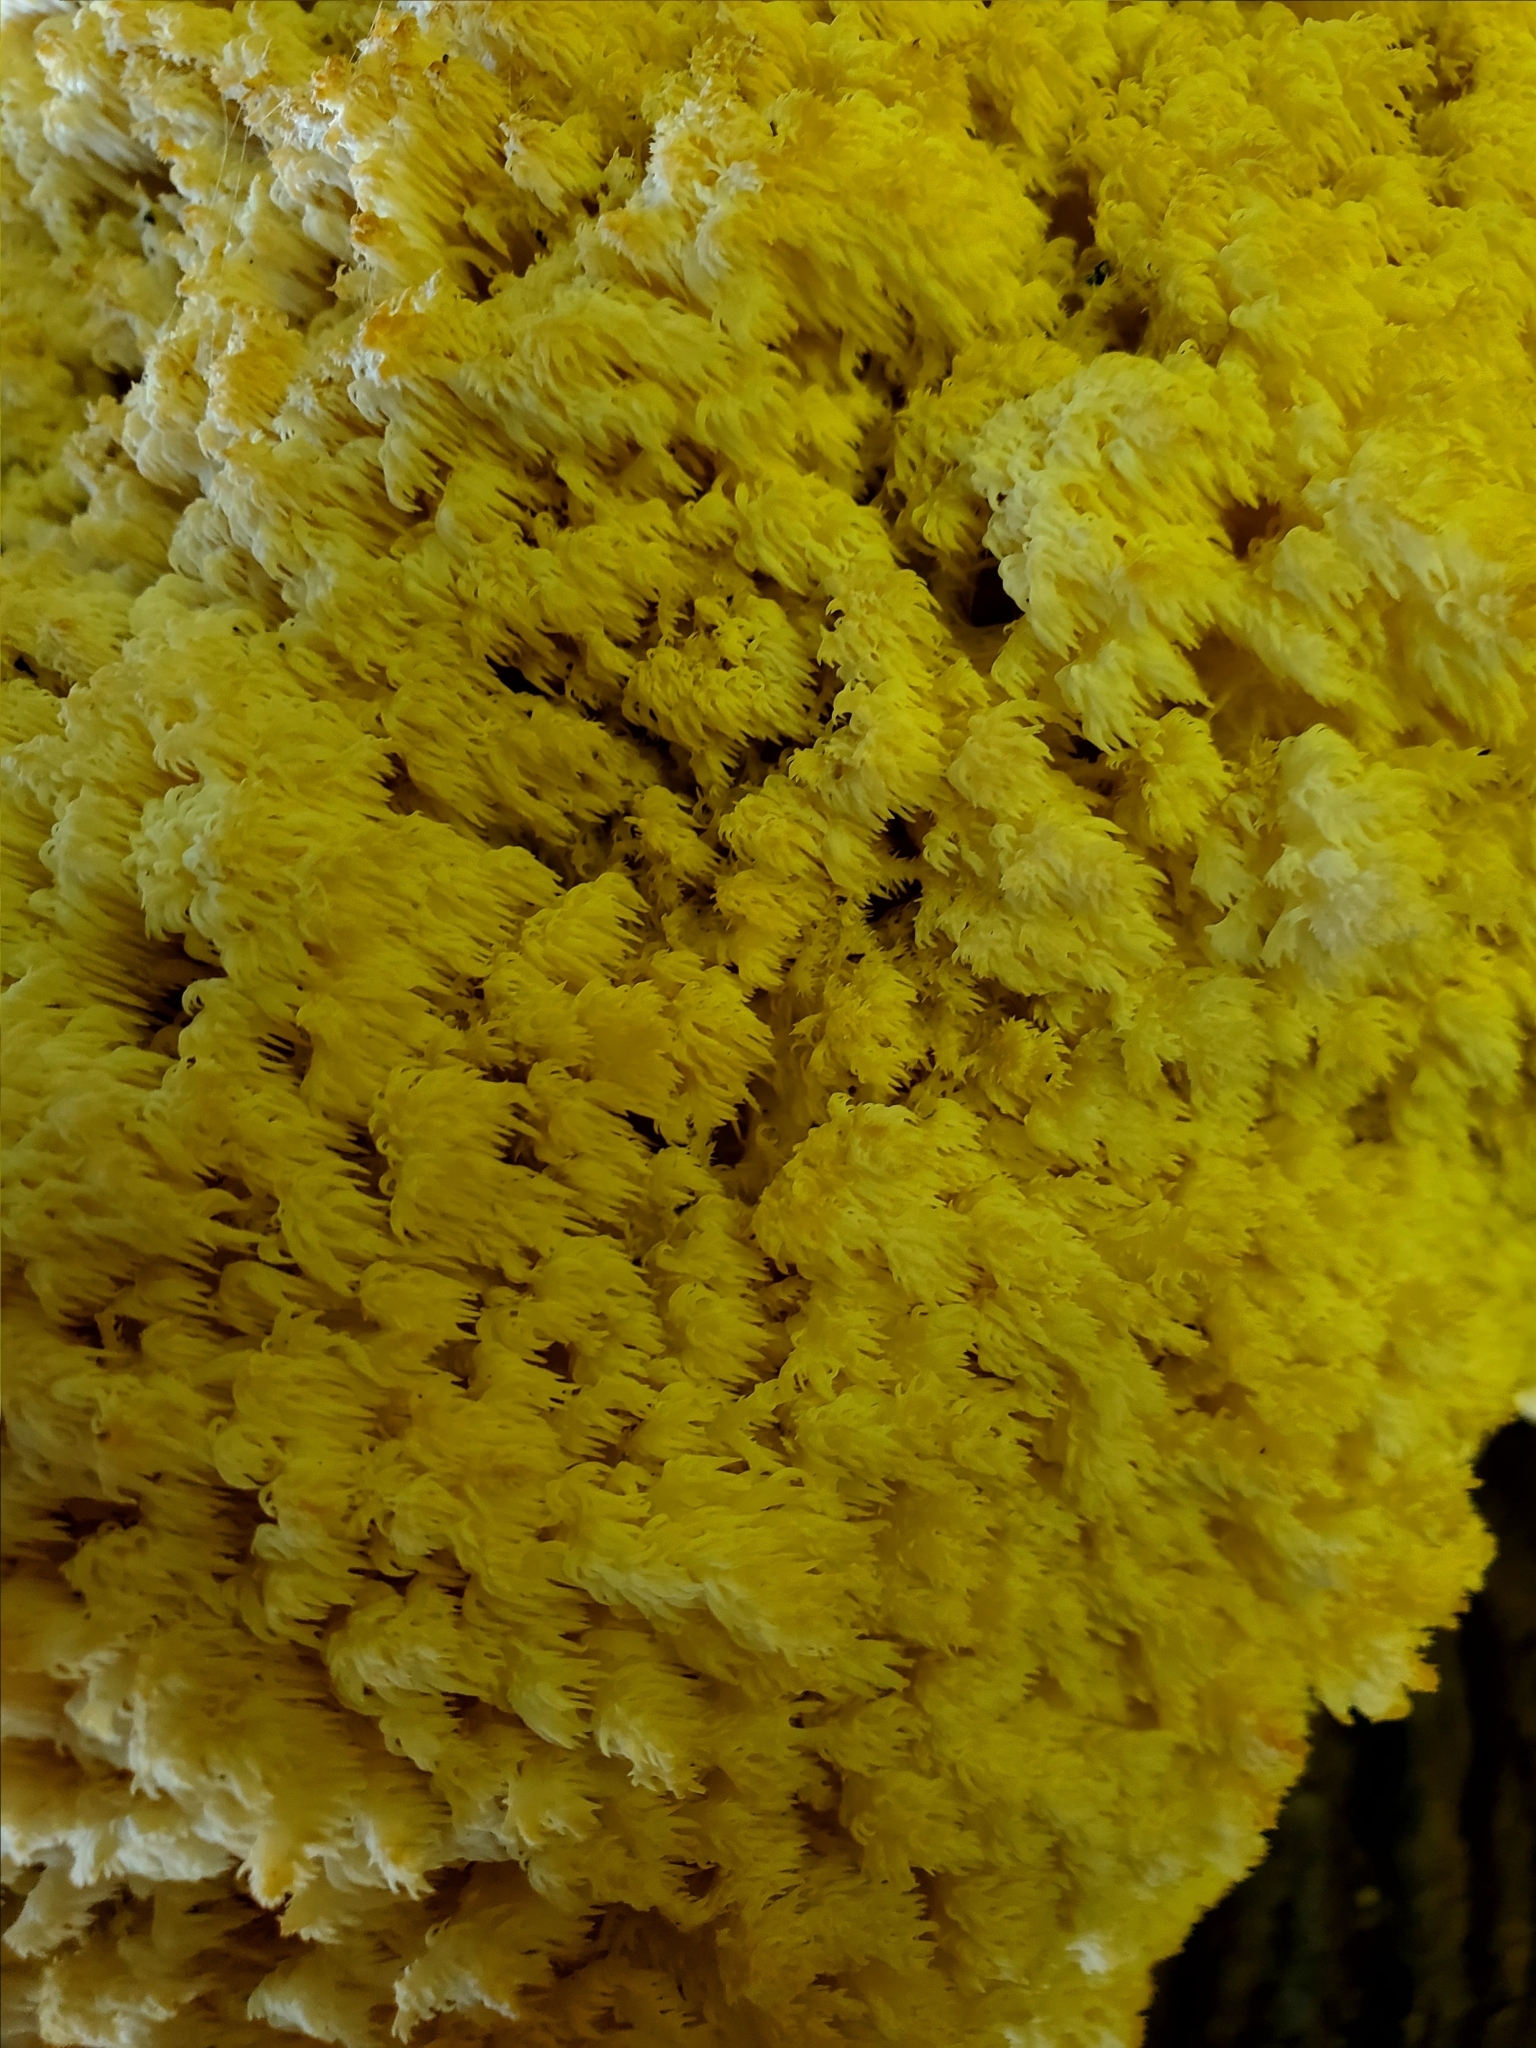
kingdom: Fungi
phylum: Basidiomycota
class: Agaricomycetes
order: Russulales
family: Hericiaceae
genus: Hericium
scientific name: Hericium coralloides
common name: Coral tooth
